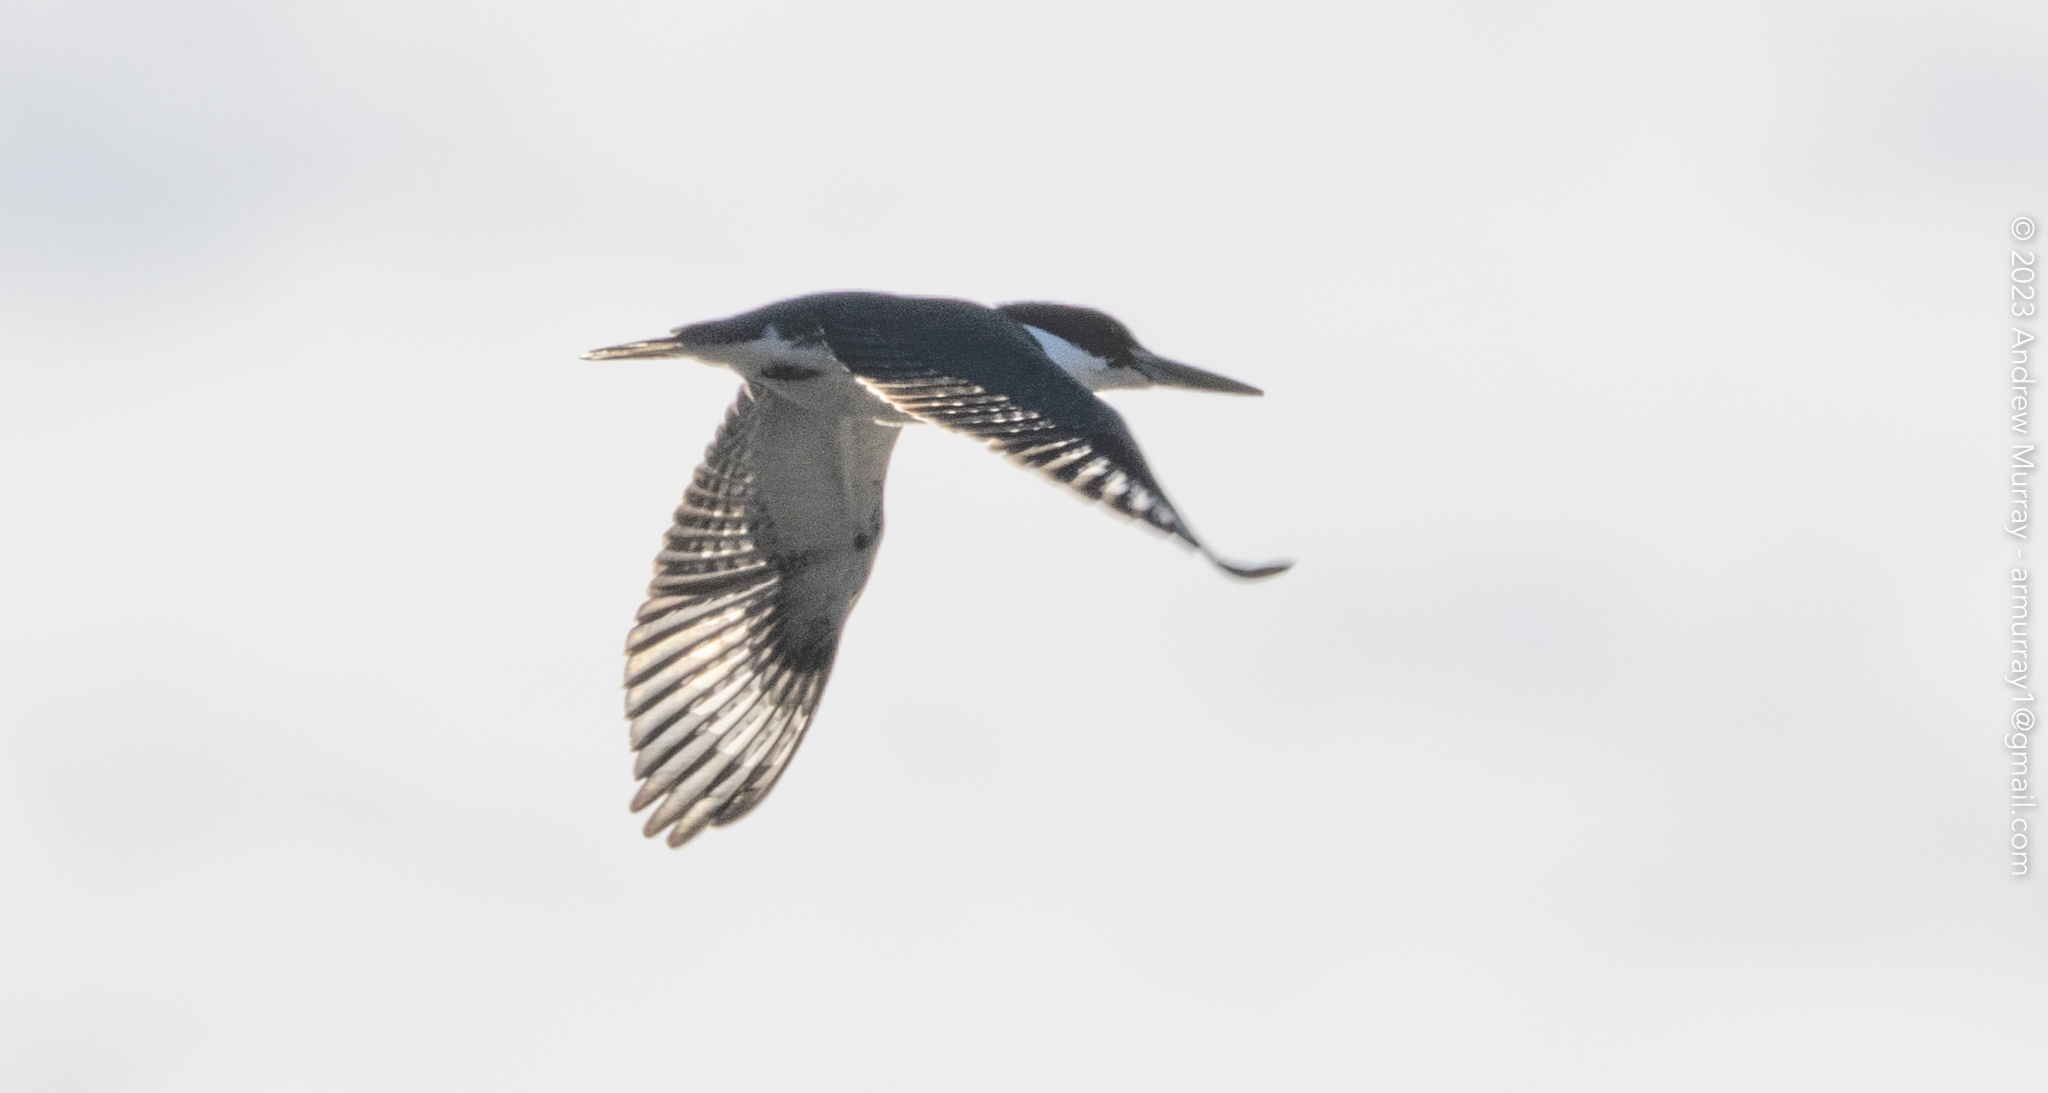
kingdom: Animalia
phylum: Chordata
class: Aves
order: Coraciiformes
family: Alcedinidae
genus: Megaceryle
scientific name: Megaceryle alcyon
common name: Belted kingfisher
